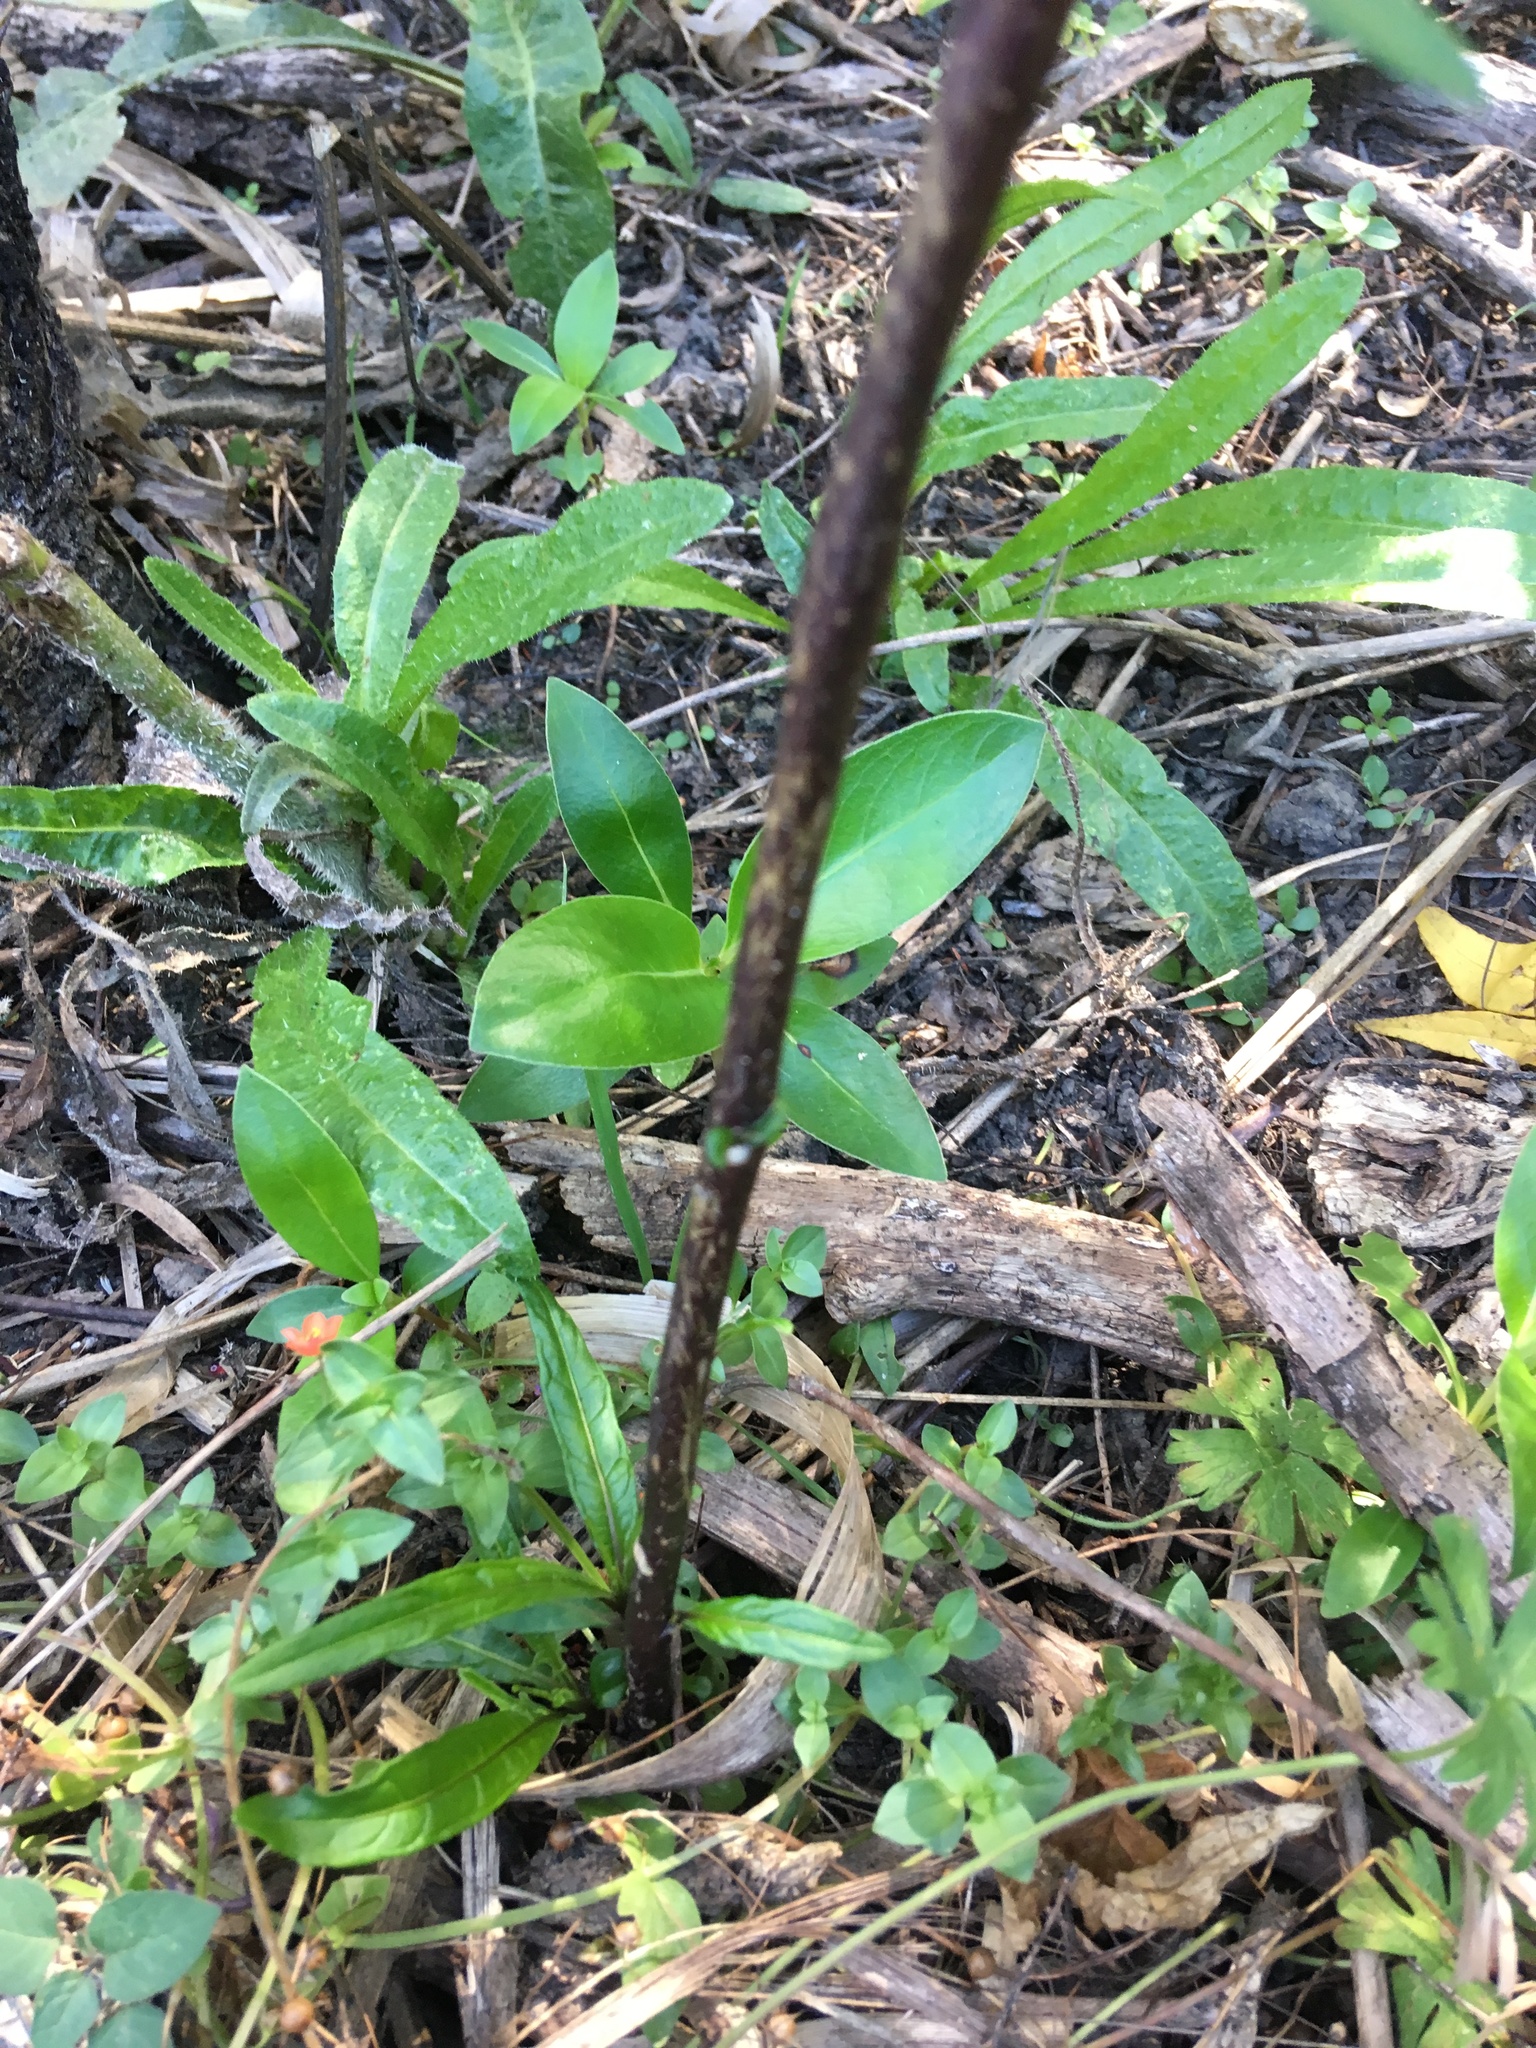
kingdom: Plantae
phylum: Tracheophyta
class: Magnoliopsida
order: Gentianales
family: Rubiaceae
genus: Coprosma
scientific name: Coprosma robusta
